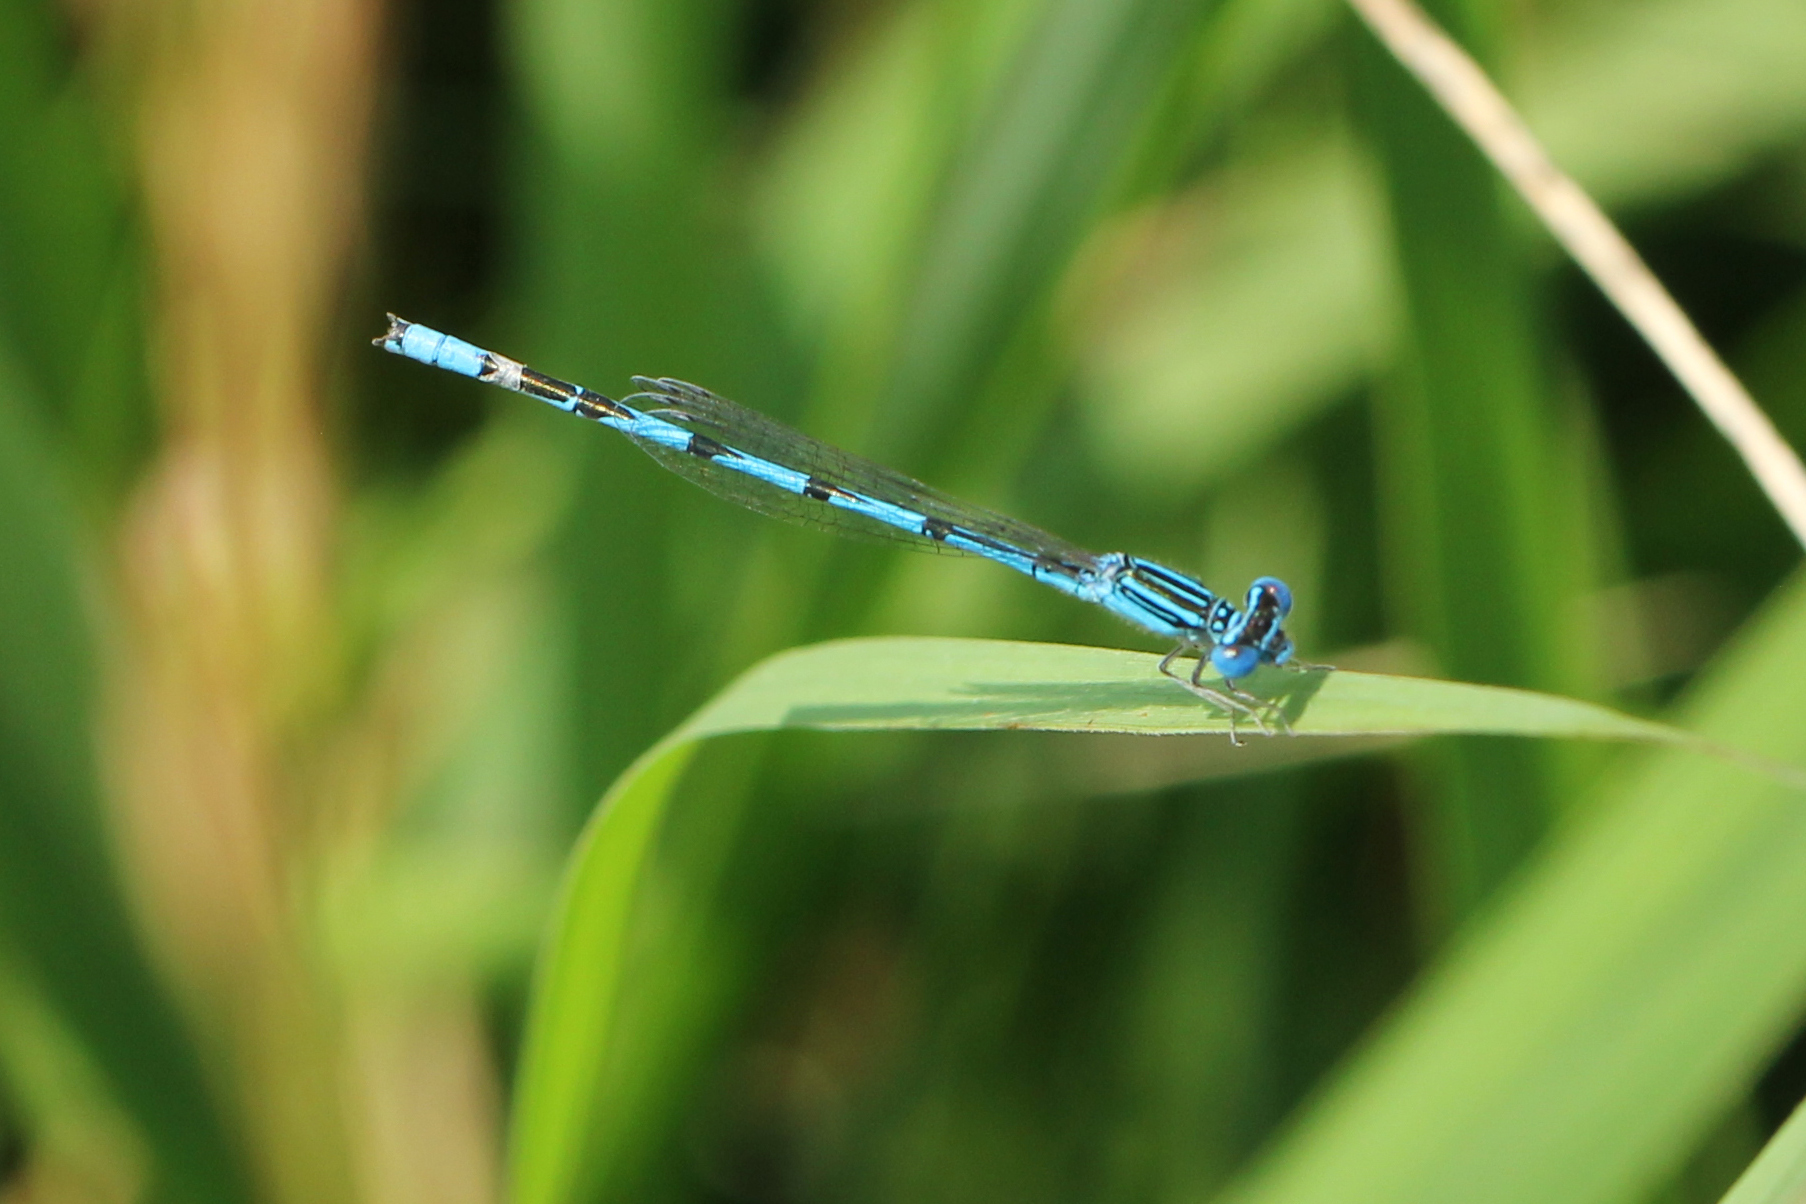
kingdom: Animalia
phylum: Arthropoda
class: Insecta
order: Odonata
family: Coenagrionidae
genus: Enallagma
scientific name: Enallagma basidens
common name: Double-striped bluet
